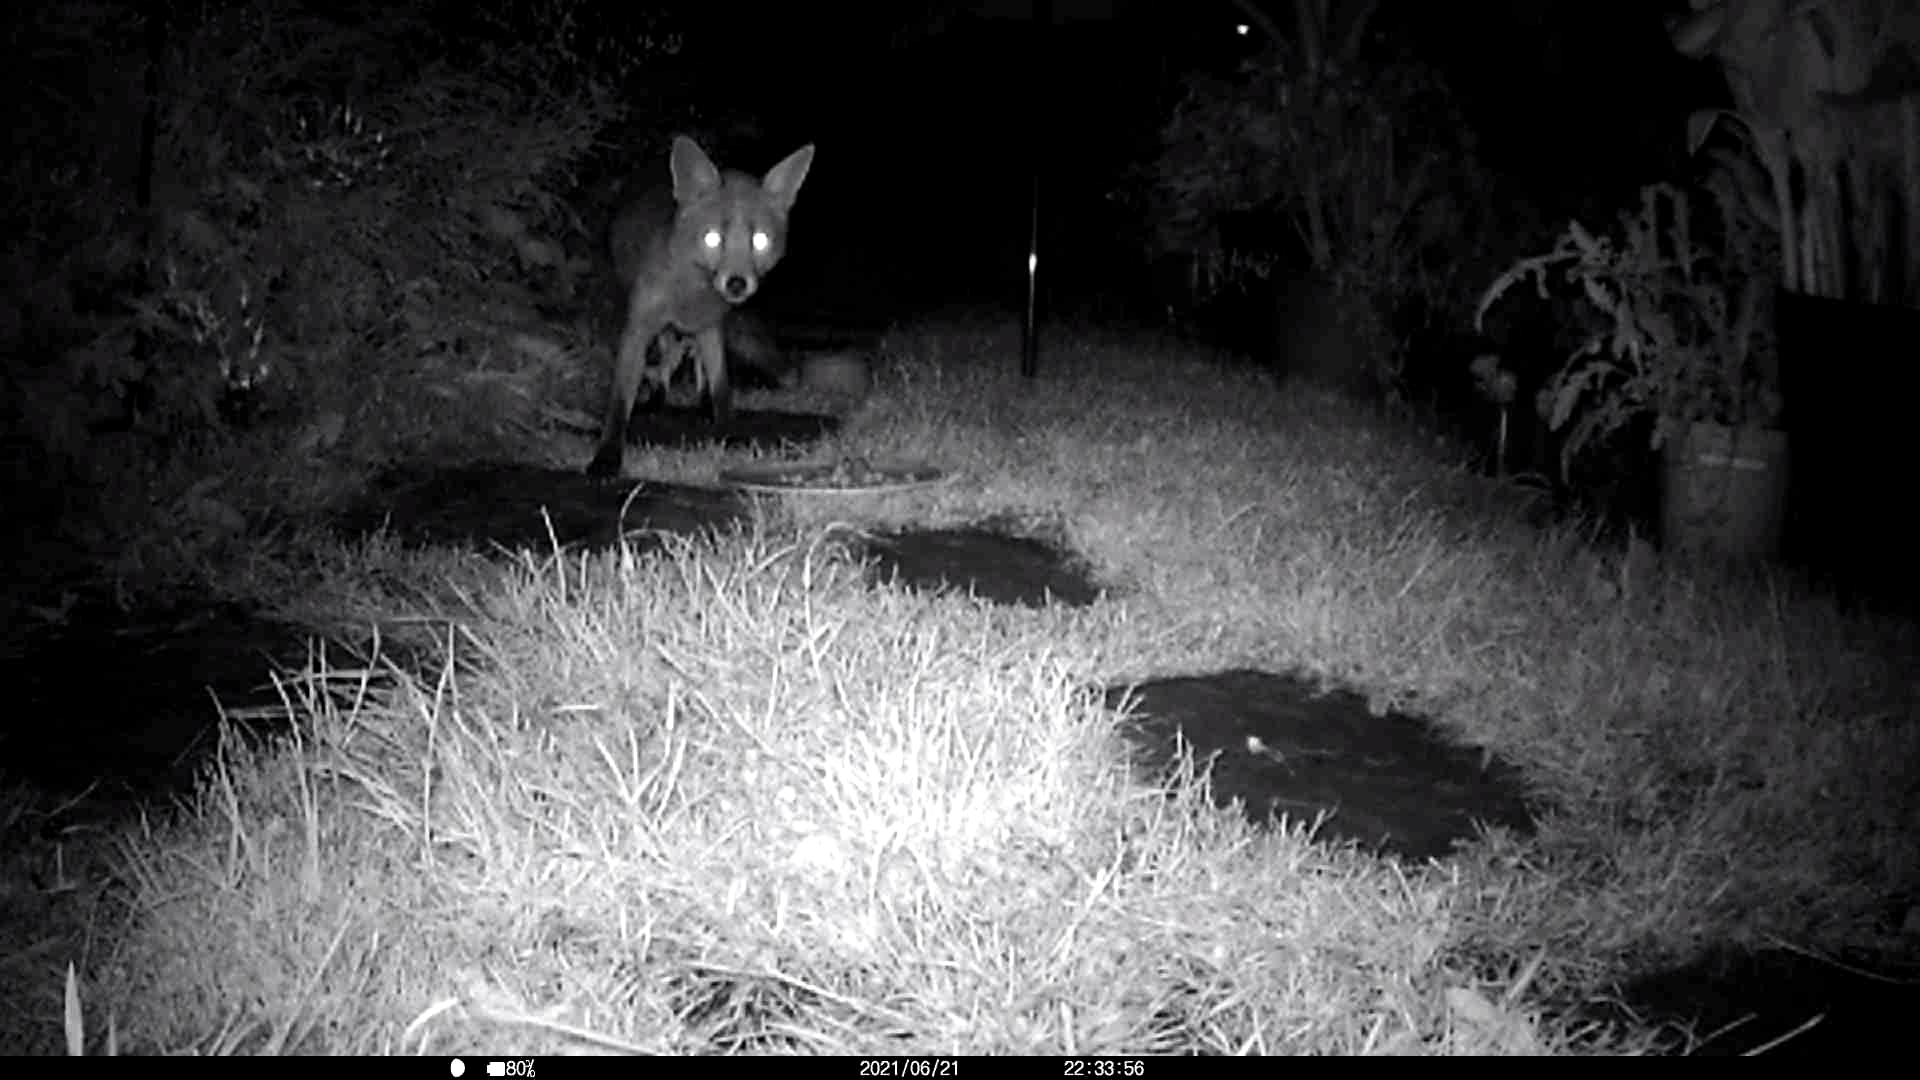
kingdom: Animalia
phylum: Chordata
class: Mammalia
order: Carnivora
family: Canidae
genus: Vulpes
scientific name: Vulpes vulpes
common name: Red fox
